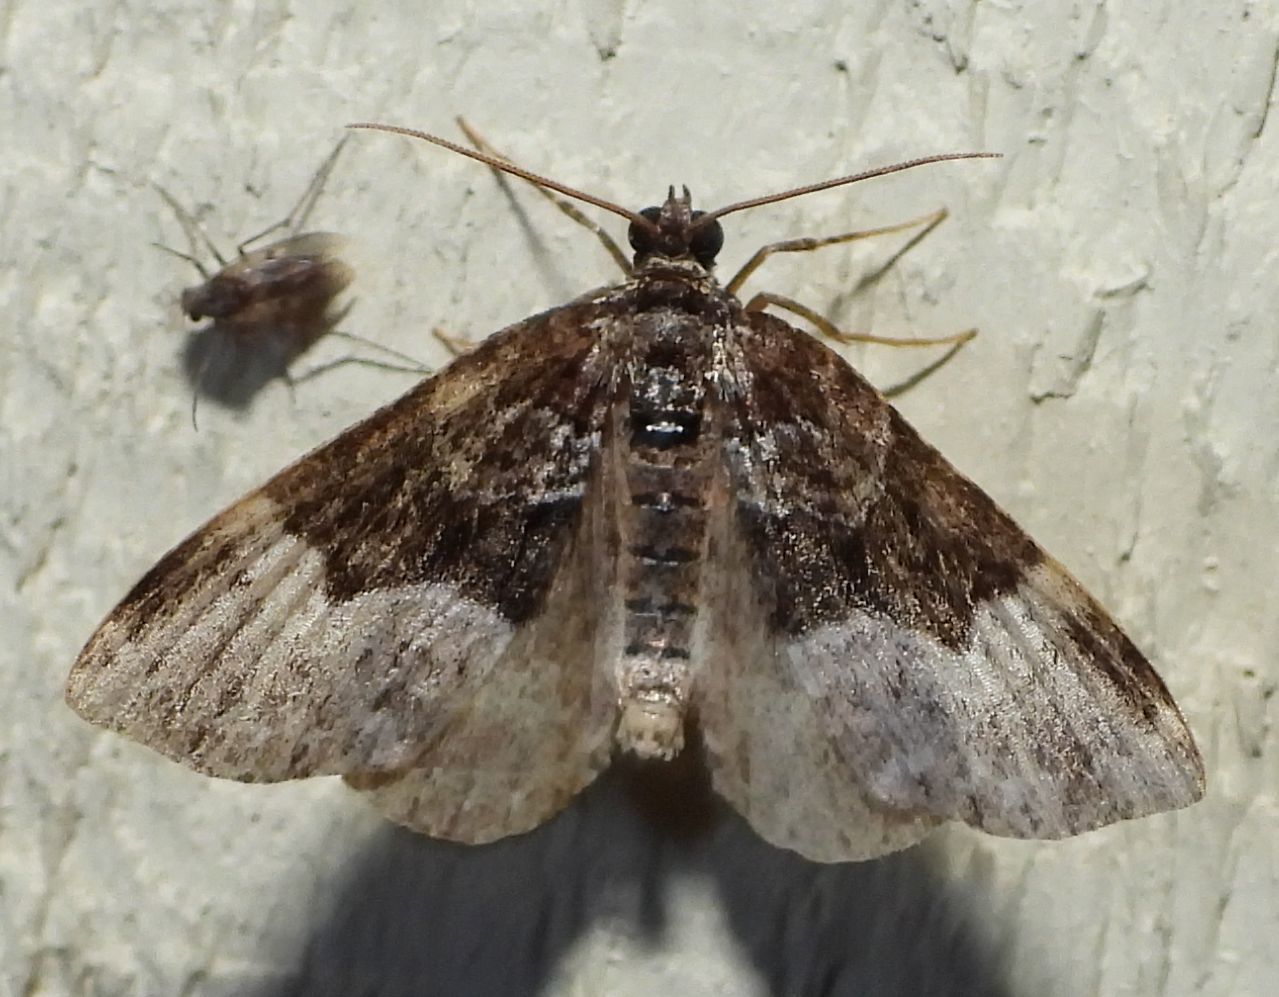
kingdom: Animalia
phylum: Arthropoda
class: Insecta
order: Lepidoptera
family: Geometridae
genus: Euphyia
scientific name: Euphyia intermediata
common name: Sharp-angled carpet
